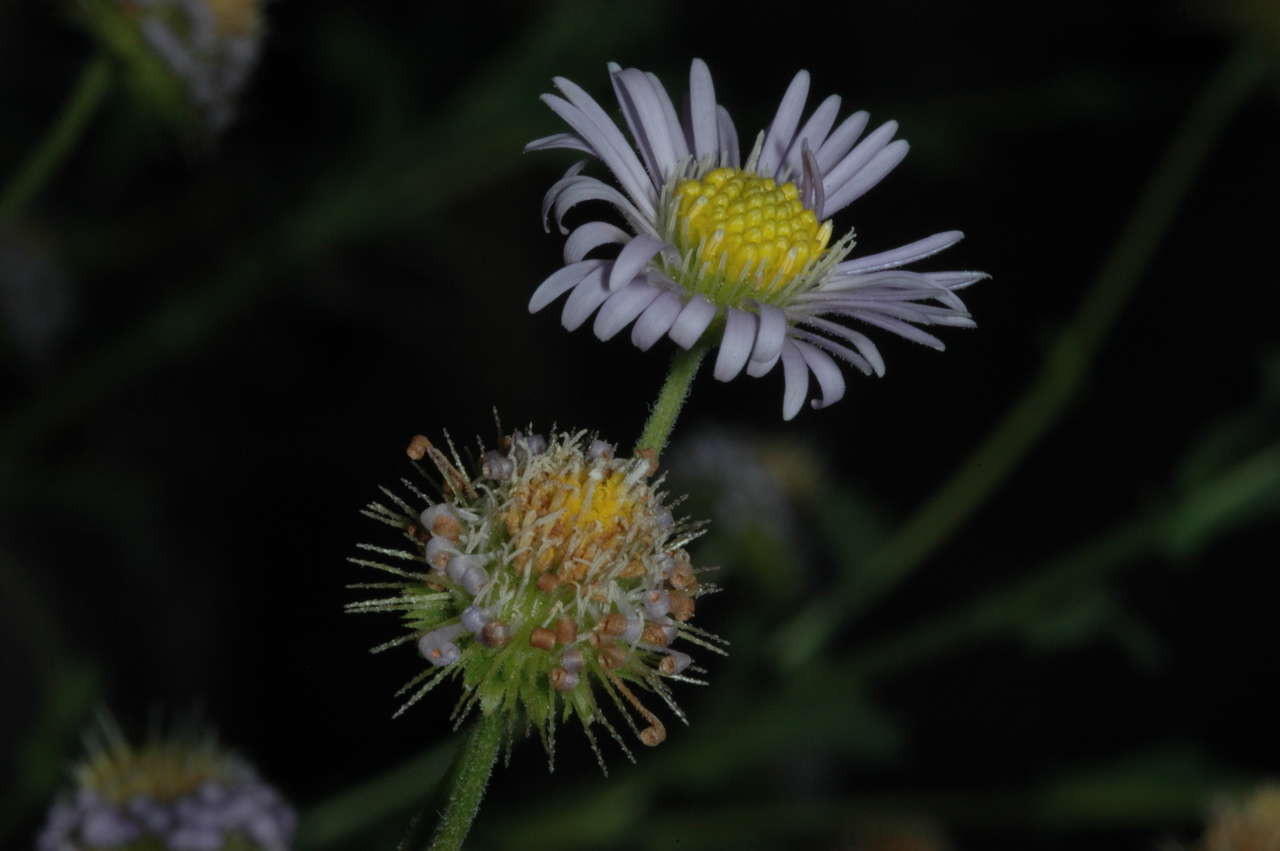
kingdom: Plantae
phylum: Tracheophyta
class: Magnoliopsida
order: Asterales
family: Asteraceae
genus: Calotis
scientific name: Calotis cuneifolia
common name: Bur-daisy
